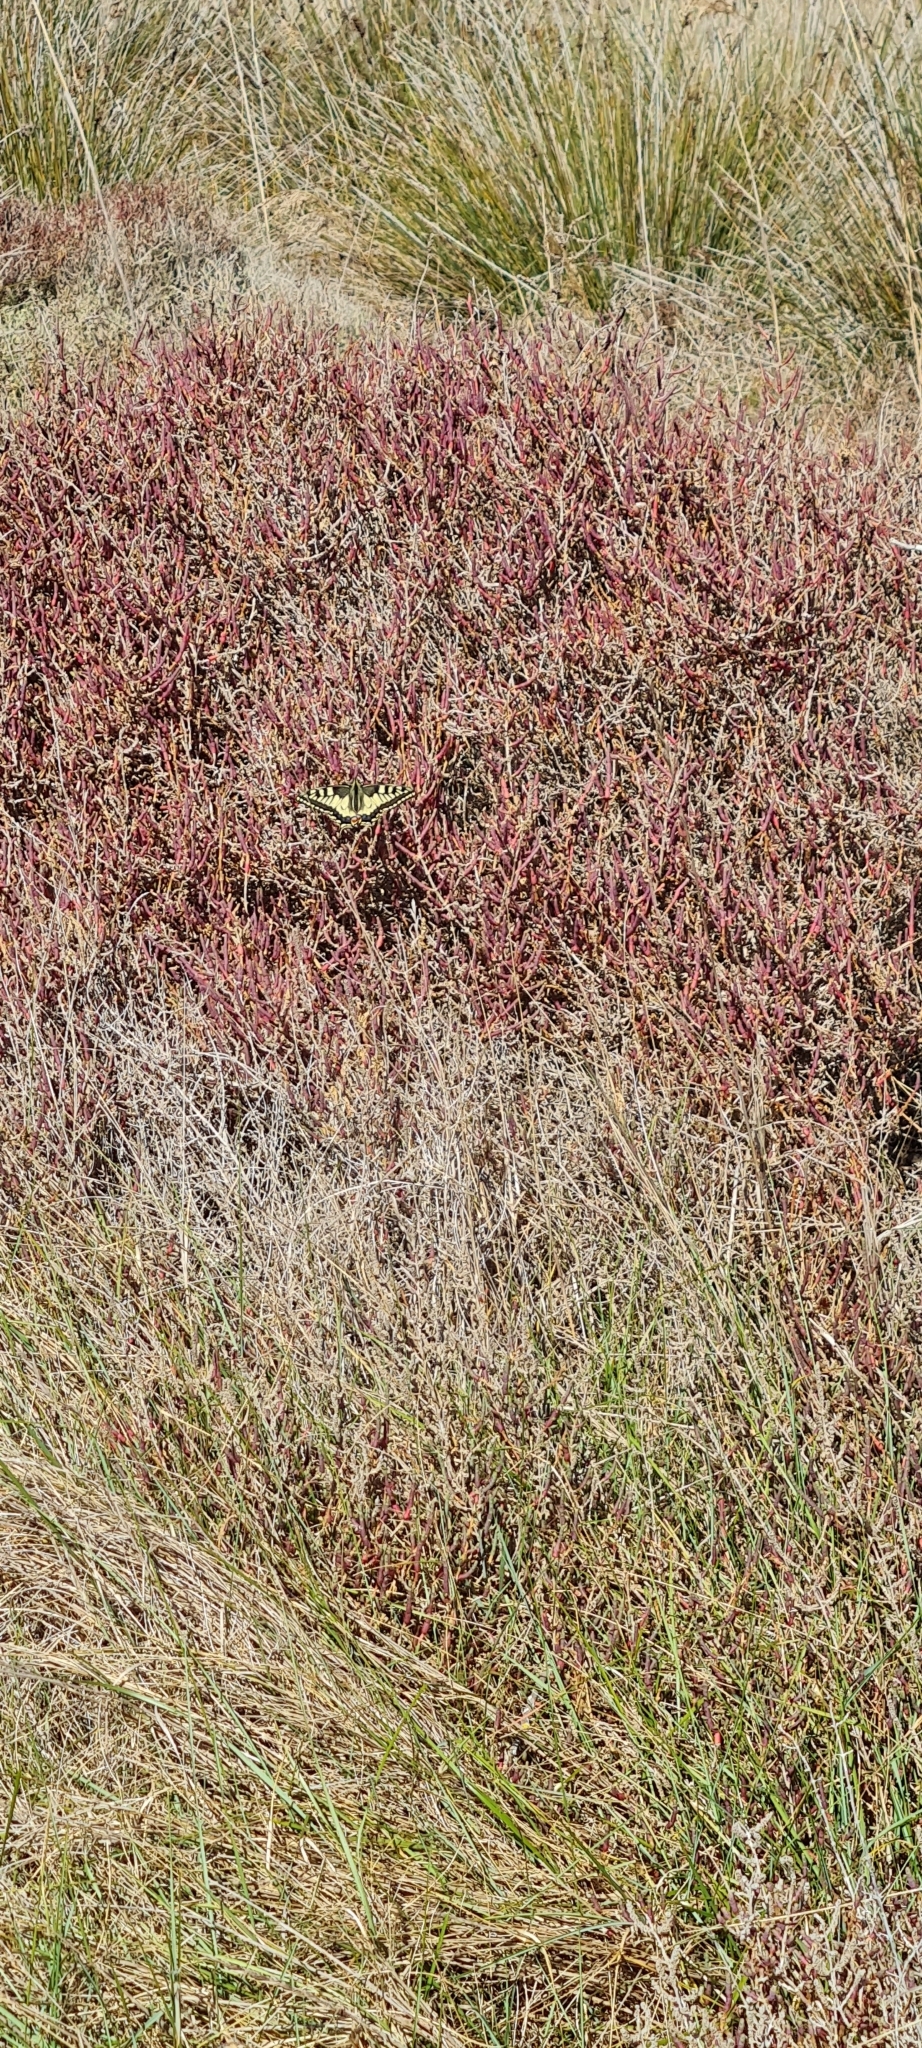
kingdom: Animalia
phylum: Arthropoda
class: Insecta
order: Lepidoptera
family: Papilionidae
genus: Papilio
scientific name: Papilio machaon
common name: Swallowtail
